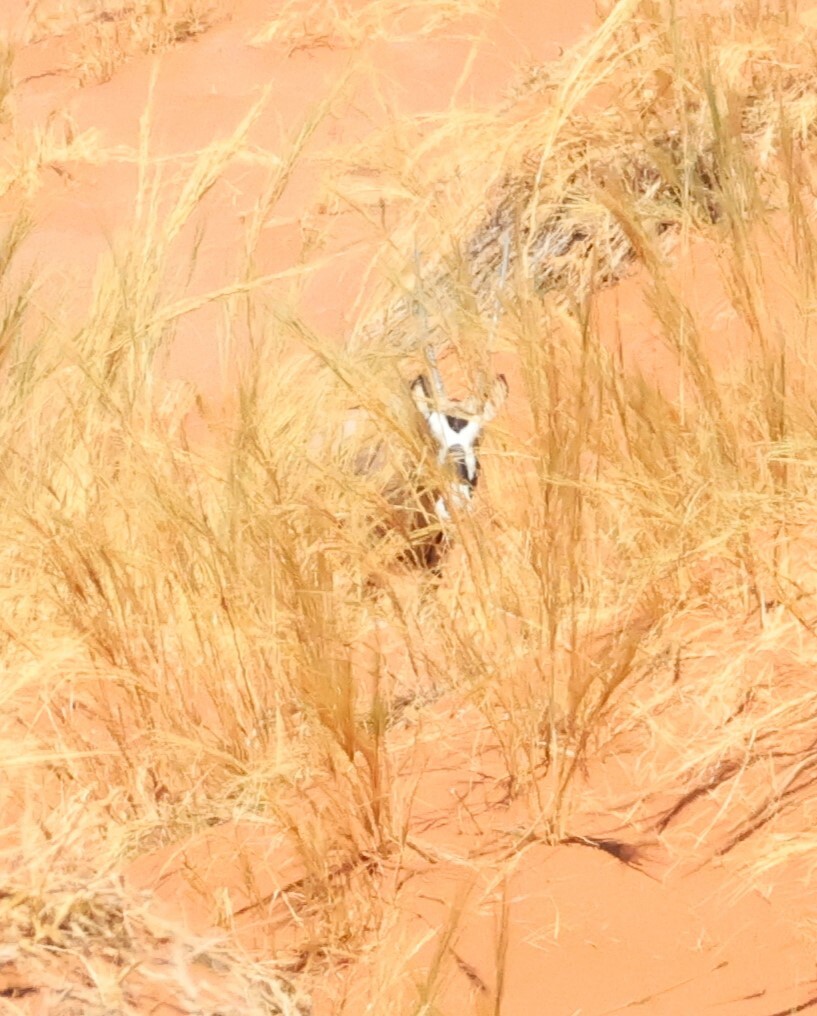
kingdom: Animalia
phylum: Chordata
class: Mammalia
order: Artiodactyla
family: Bovidae
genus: Oryx
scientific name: Oryx gazella
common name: Gemsbok
